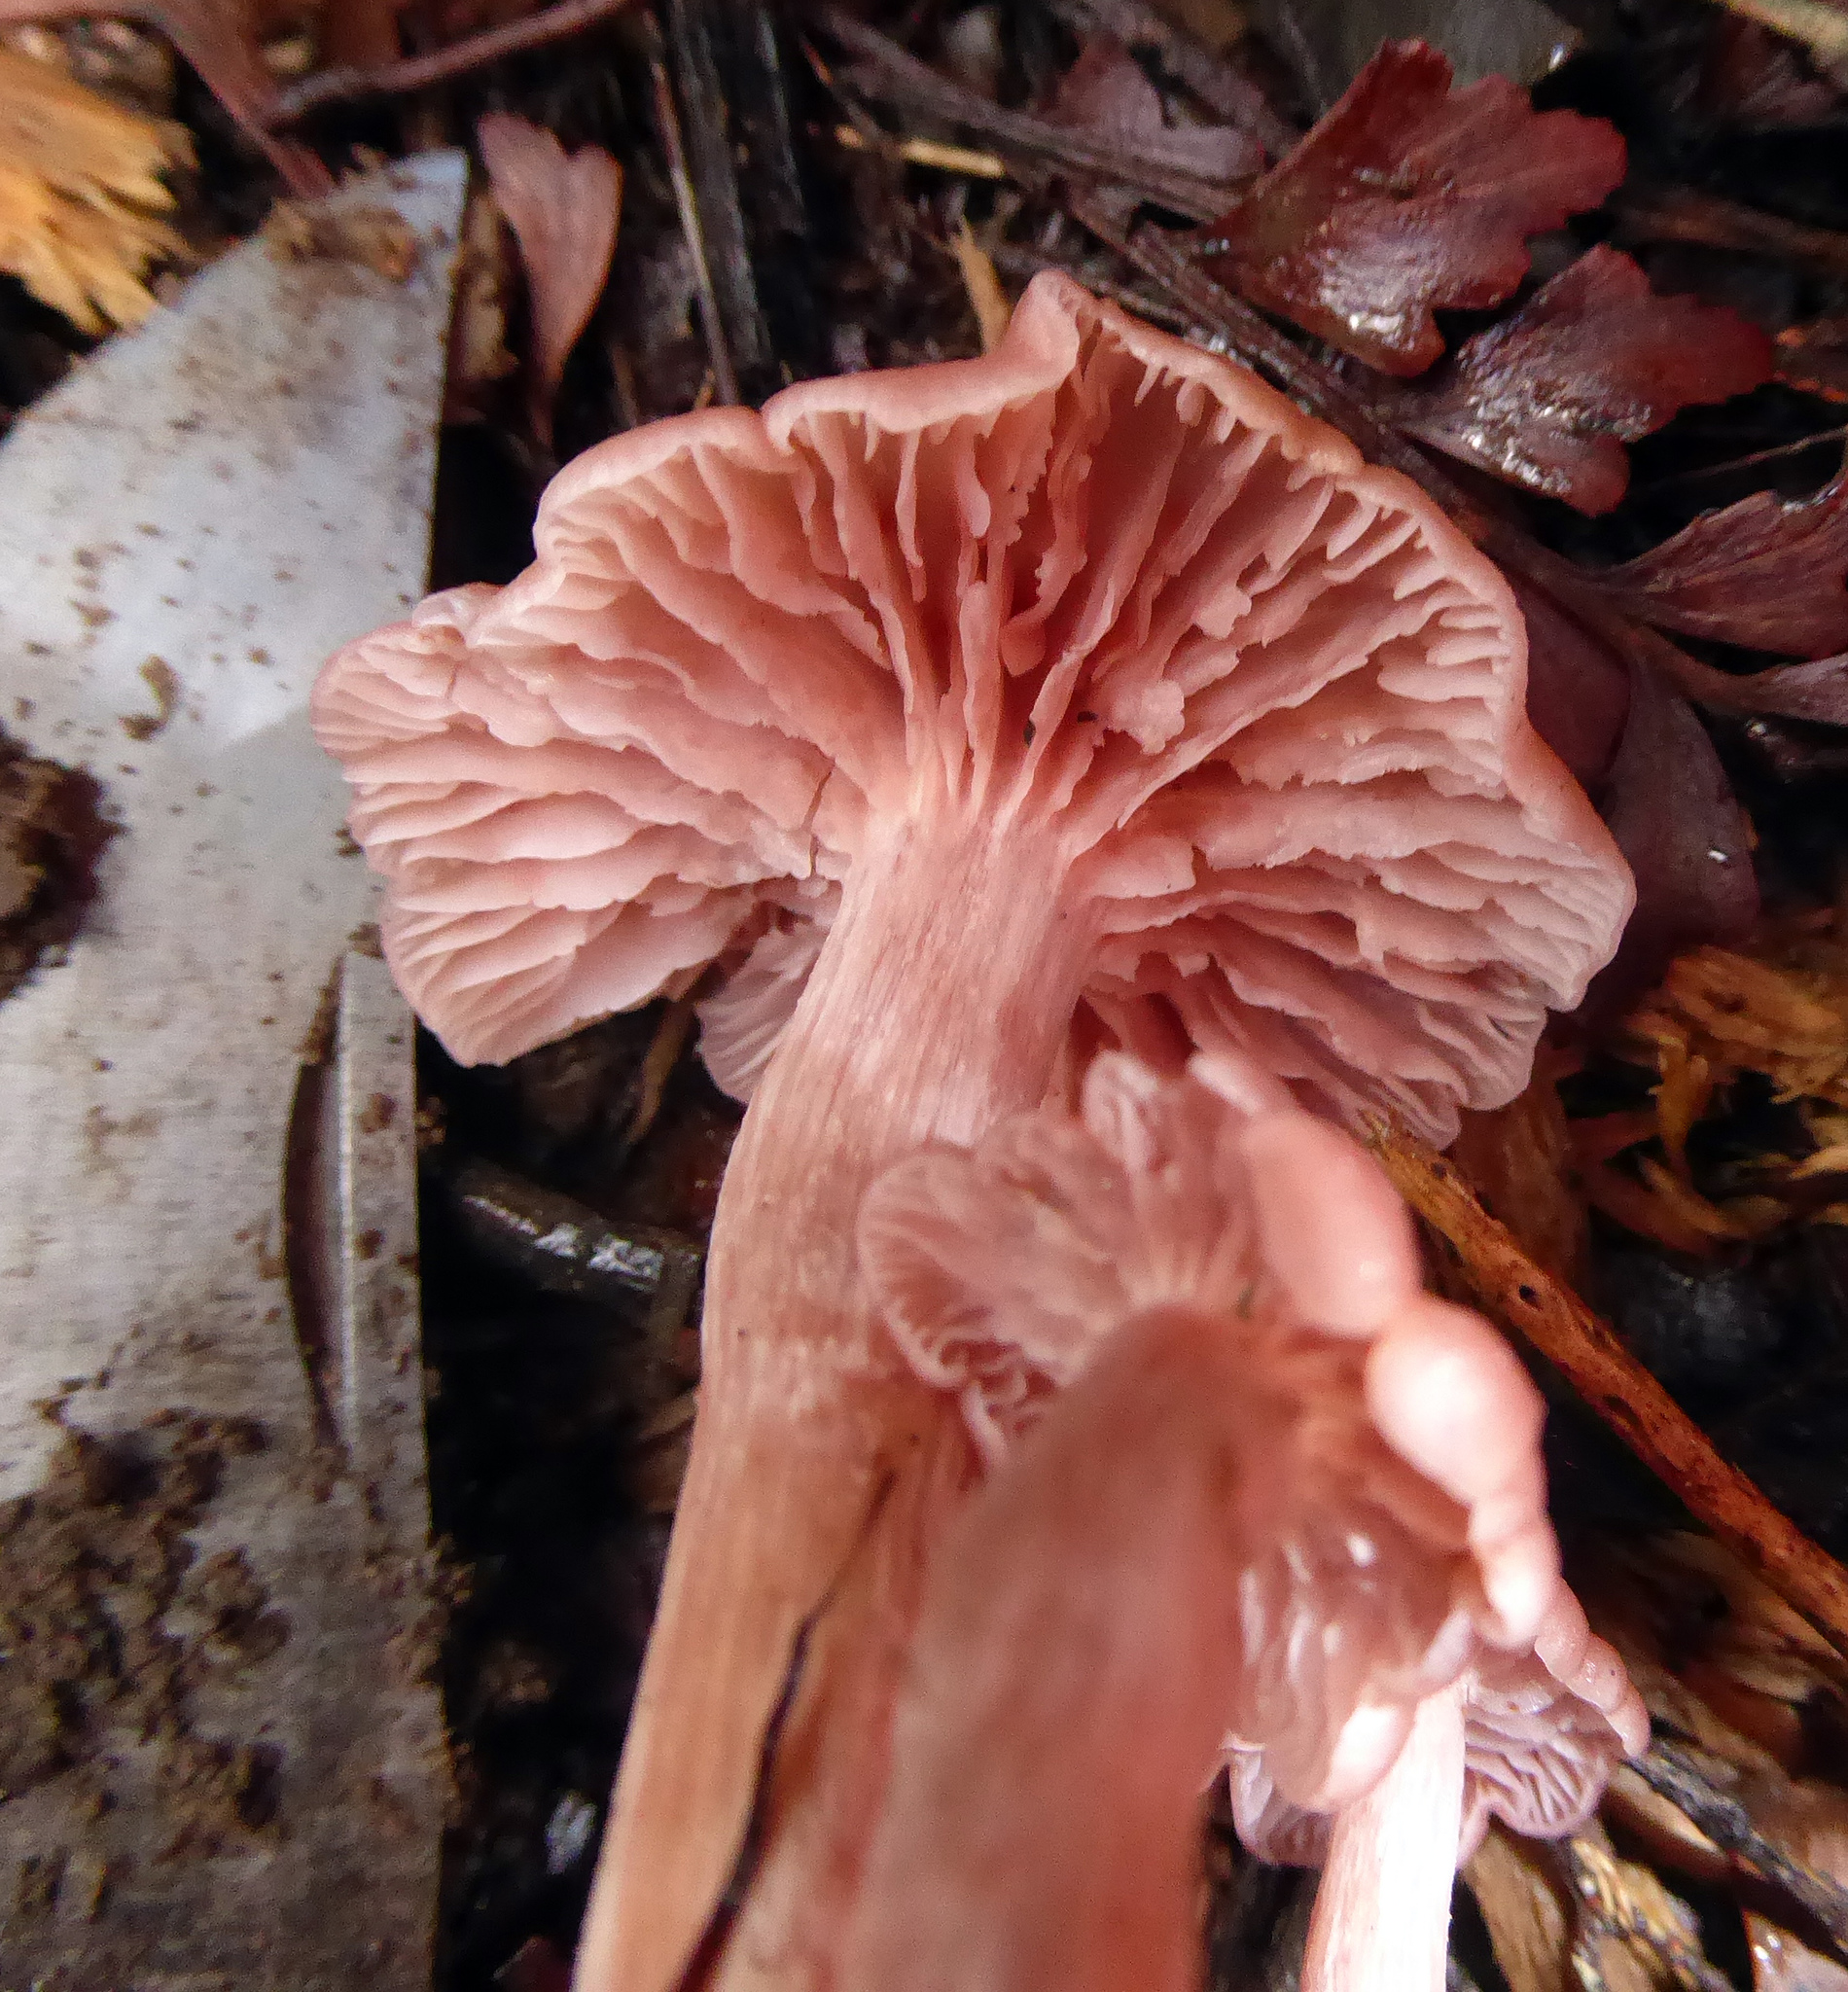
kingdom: Fungi
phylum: Basidiomycota
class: Agaricomycetes
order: Agaricales
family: Hydnangiaceae
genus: Laccaria
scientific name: Laccaria
